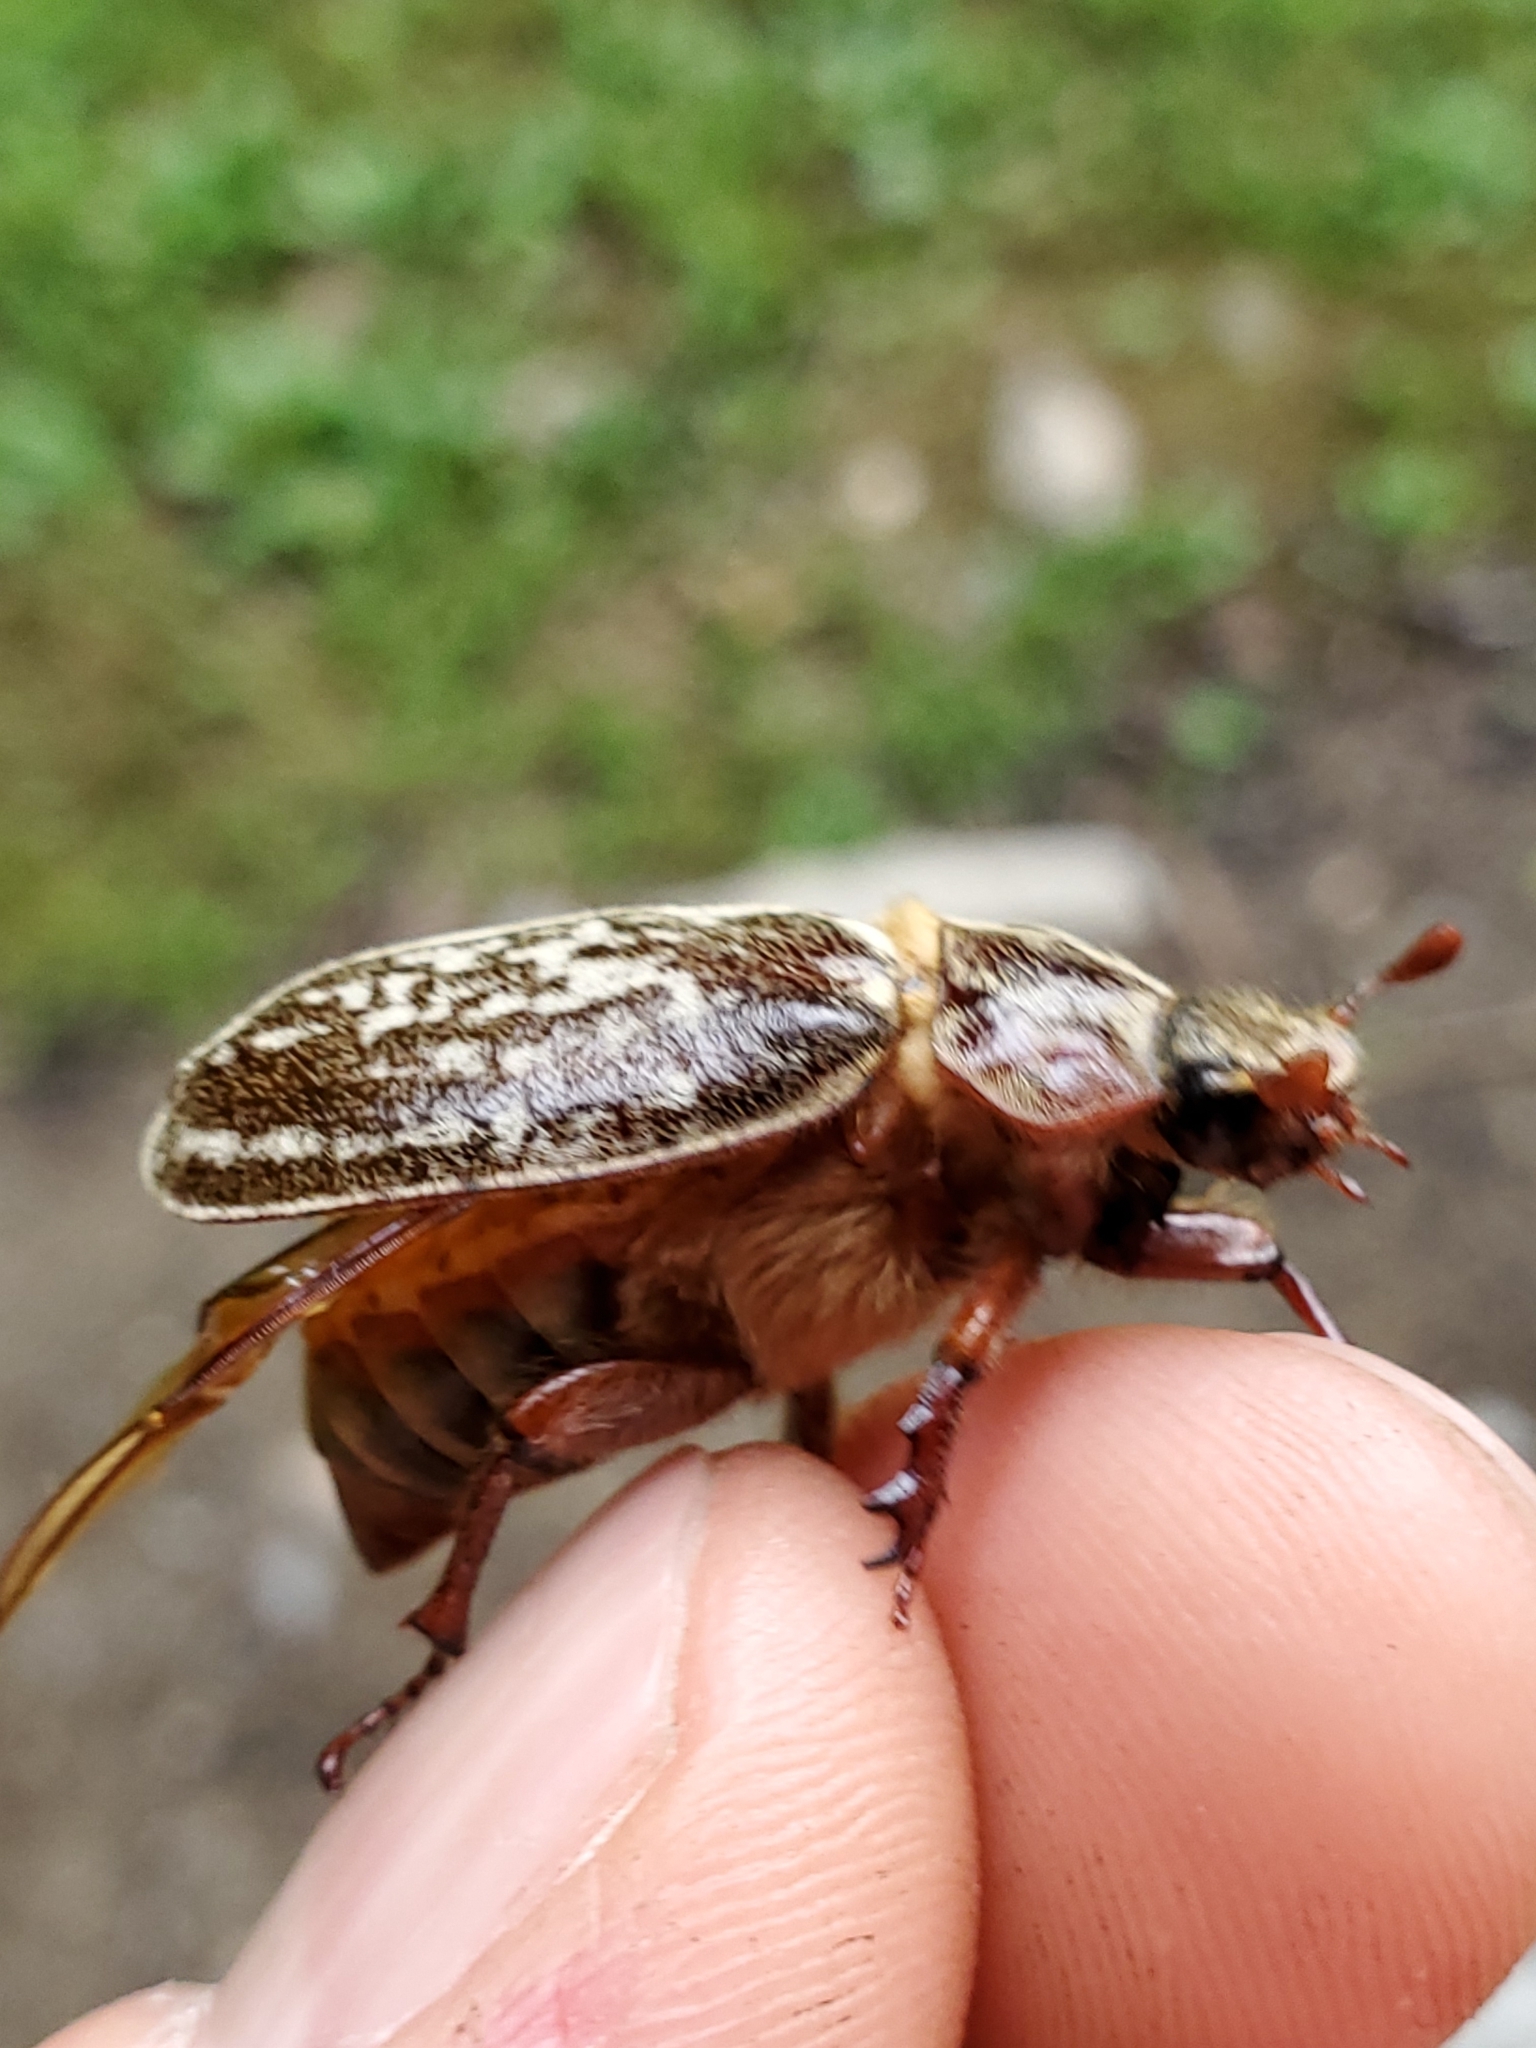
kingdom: Animalia
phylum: Arthropoda
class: Insecta
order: Coleoptera
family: Scarabaeidae
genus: Polyphylla
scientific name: Polyphylla comes
